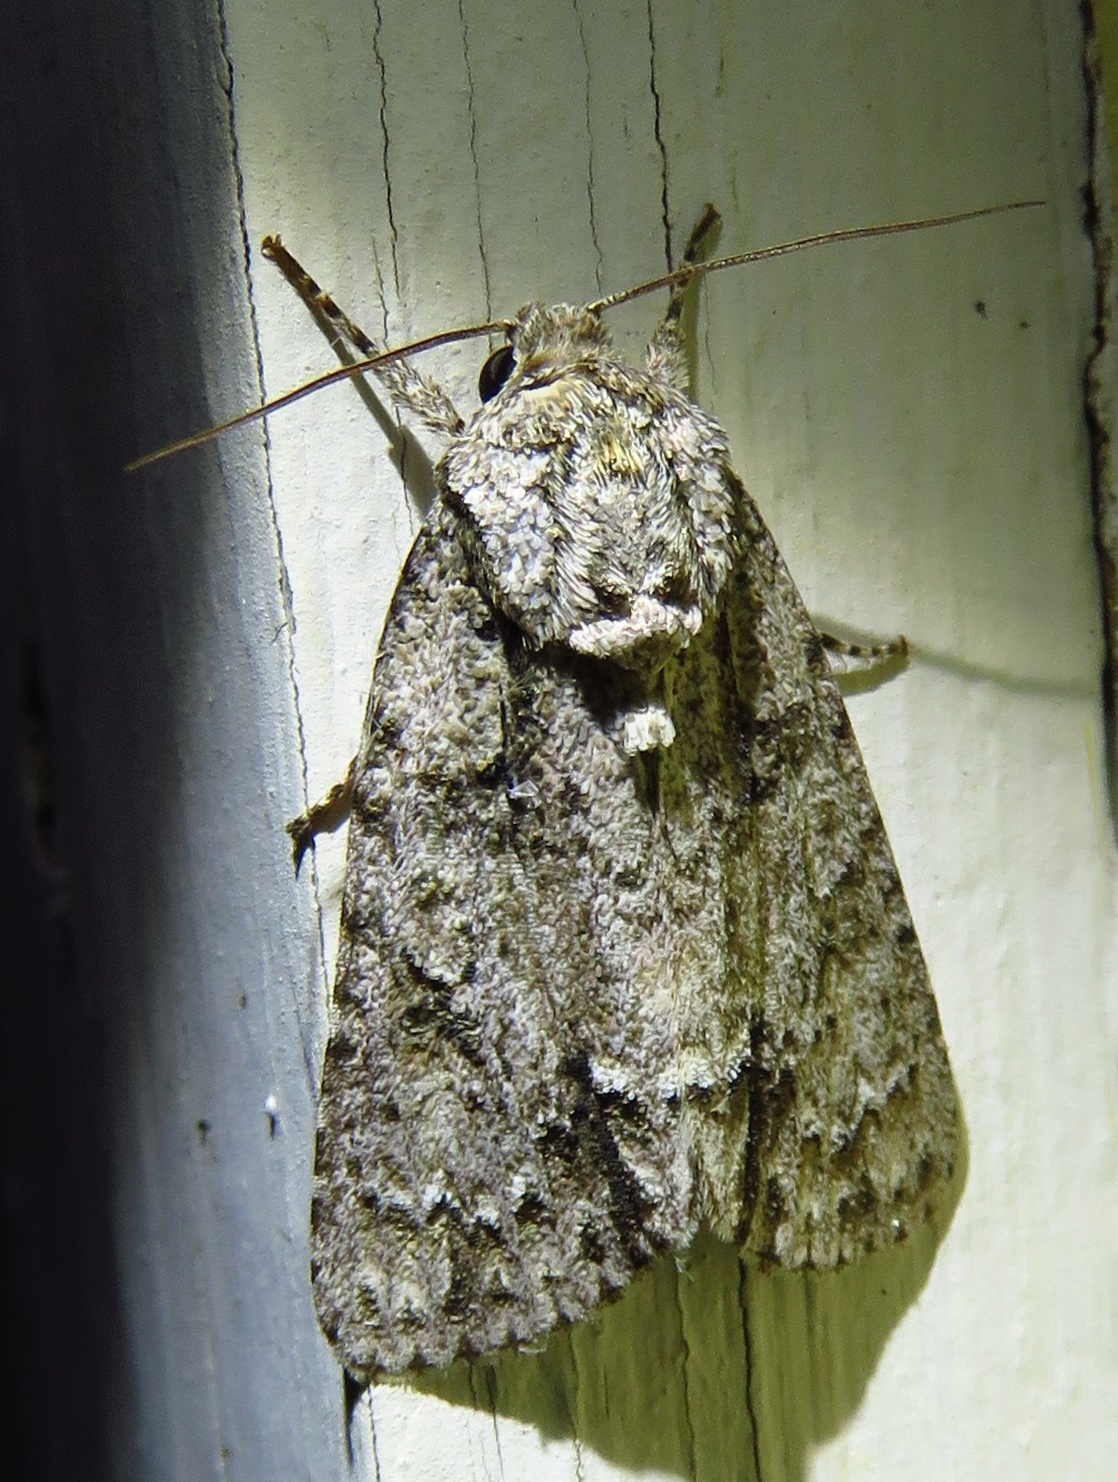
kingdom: Animalia
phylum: Arthropoda
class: Insecta
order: Lepidoptera
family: Noctuidae
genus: Acronicta
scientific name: Acronicta clarescens
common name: Clear dagger
